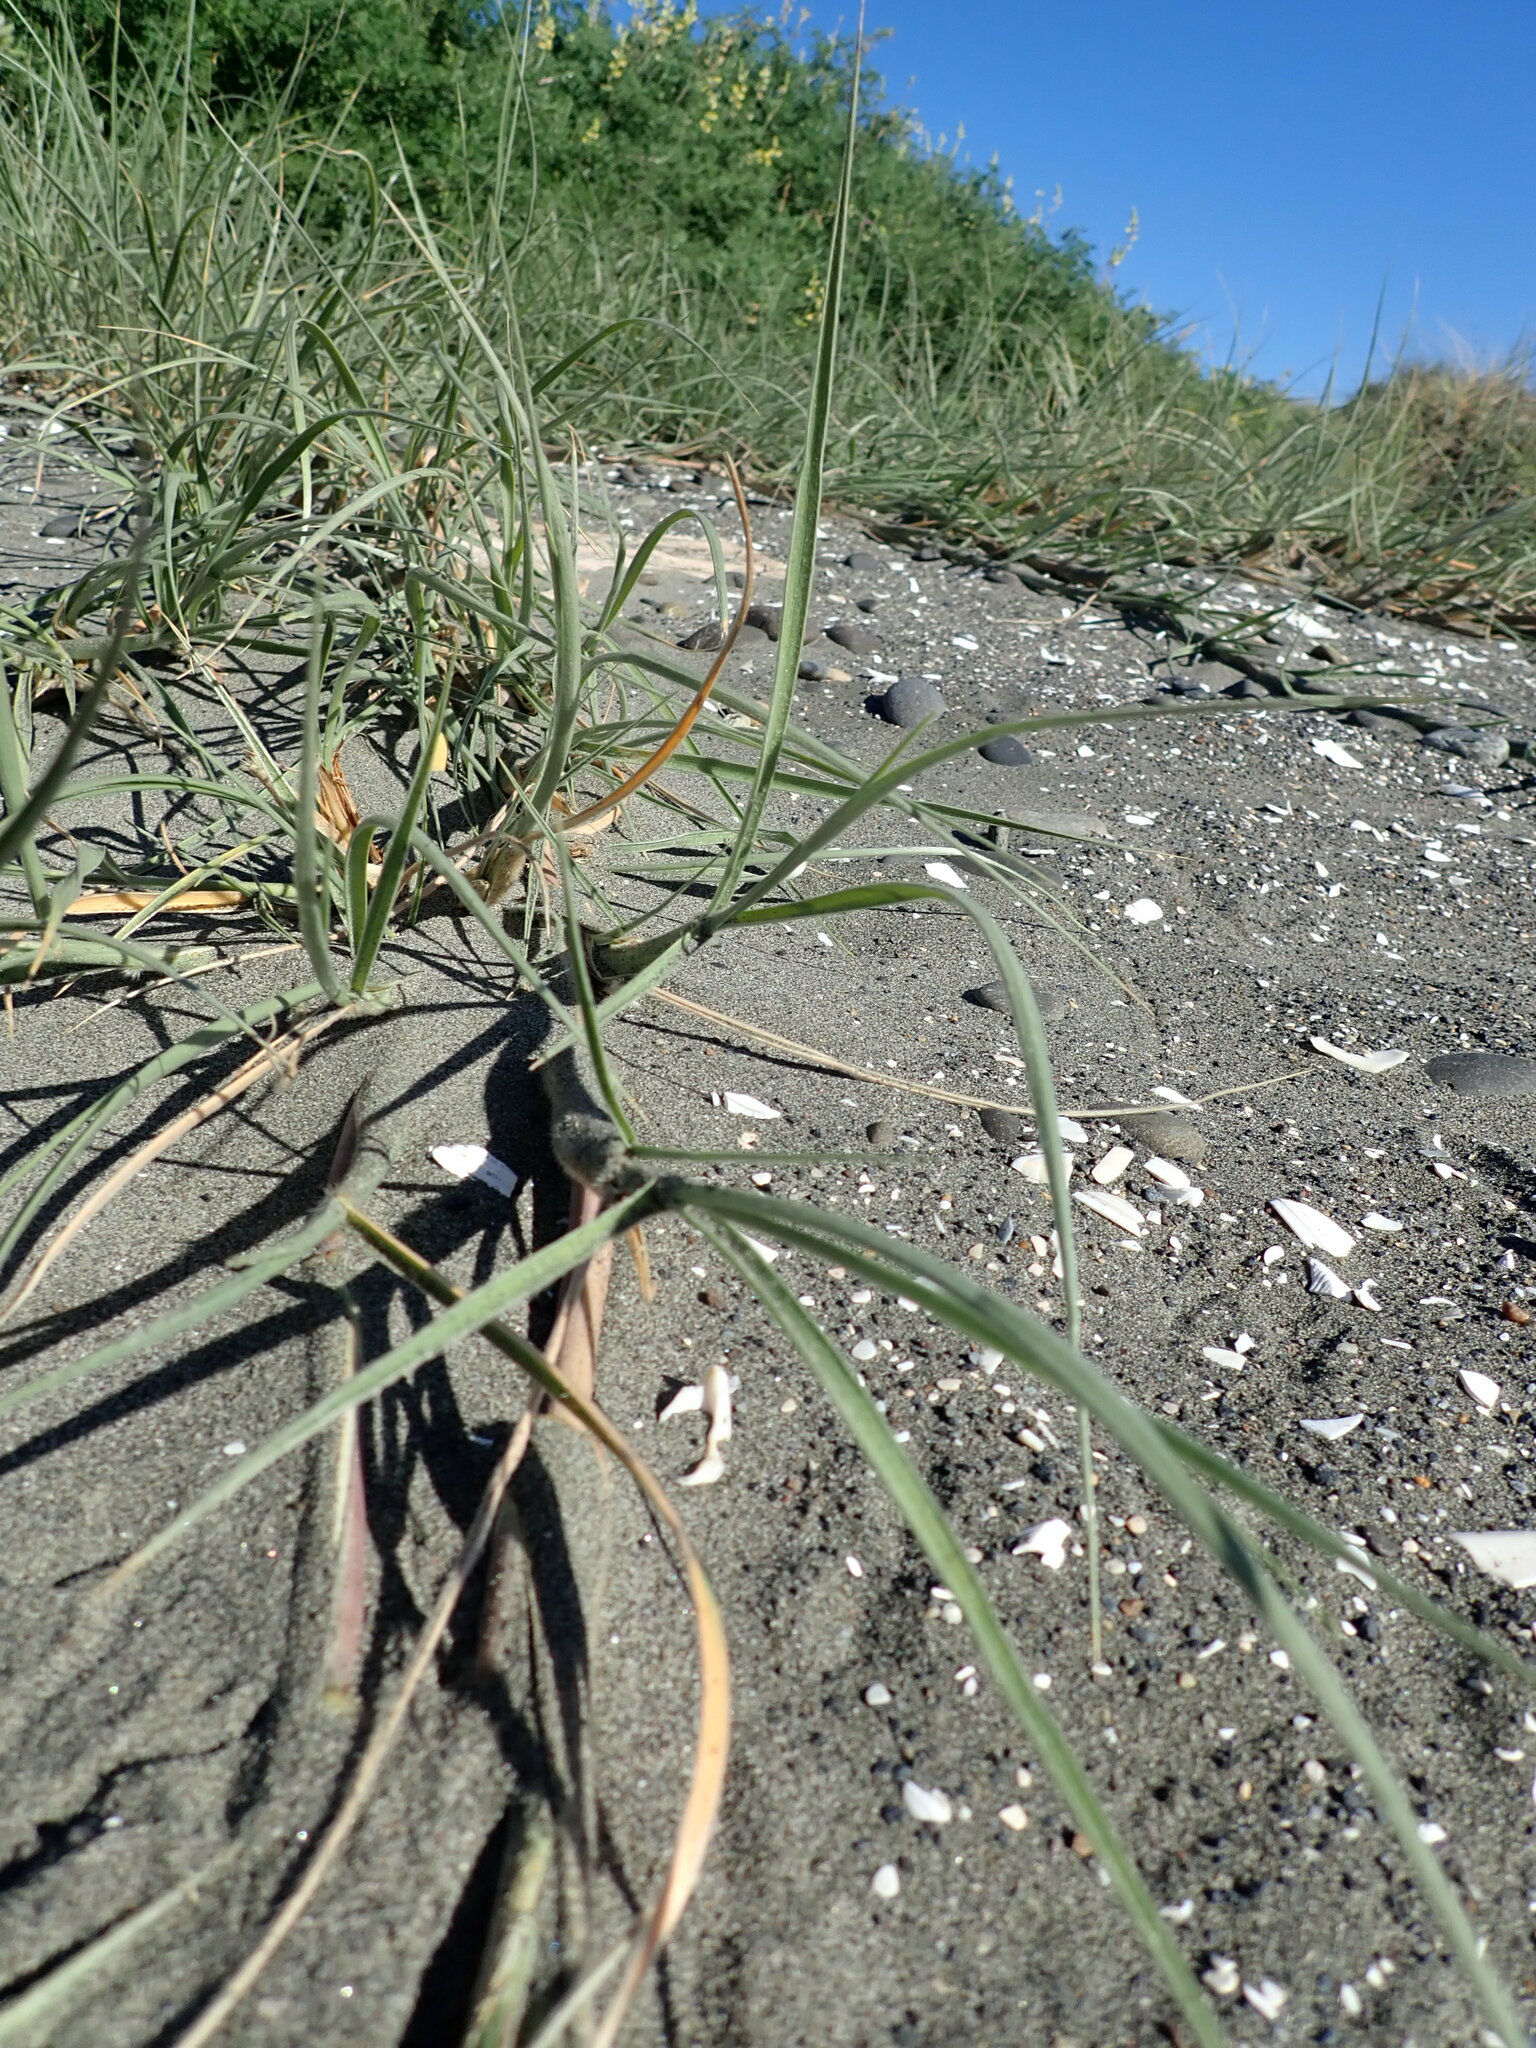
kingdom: Plantae
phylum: Tracheophyta
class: Liliopsida
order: Poales
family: Poaceae
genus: Spinifex
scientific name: Spinifex sericeus
